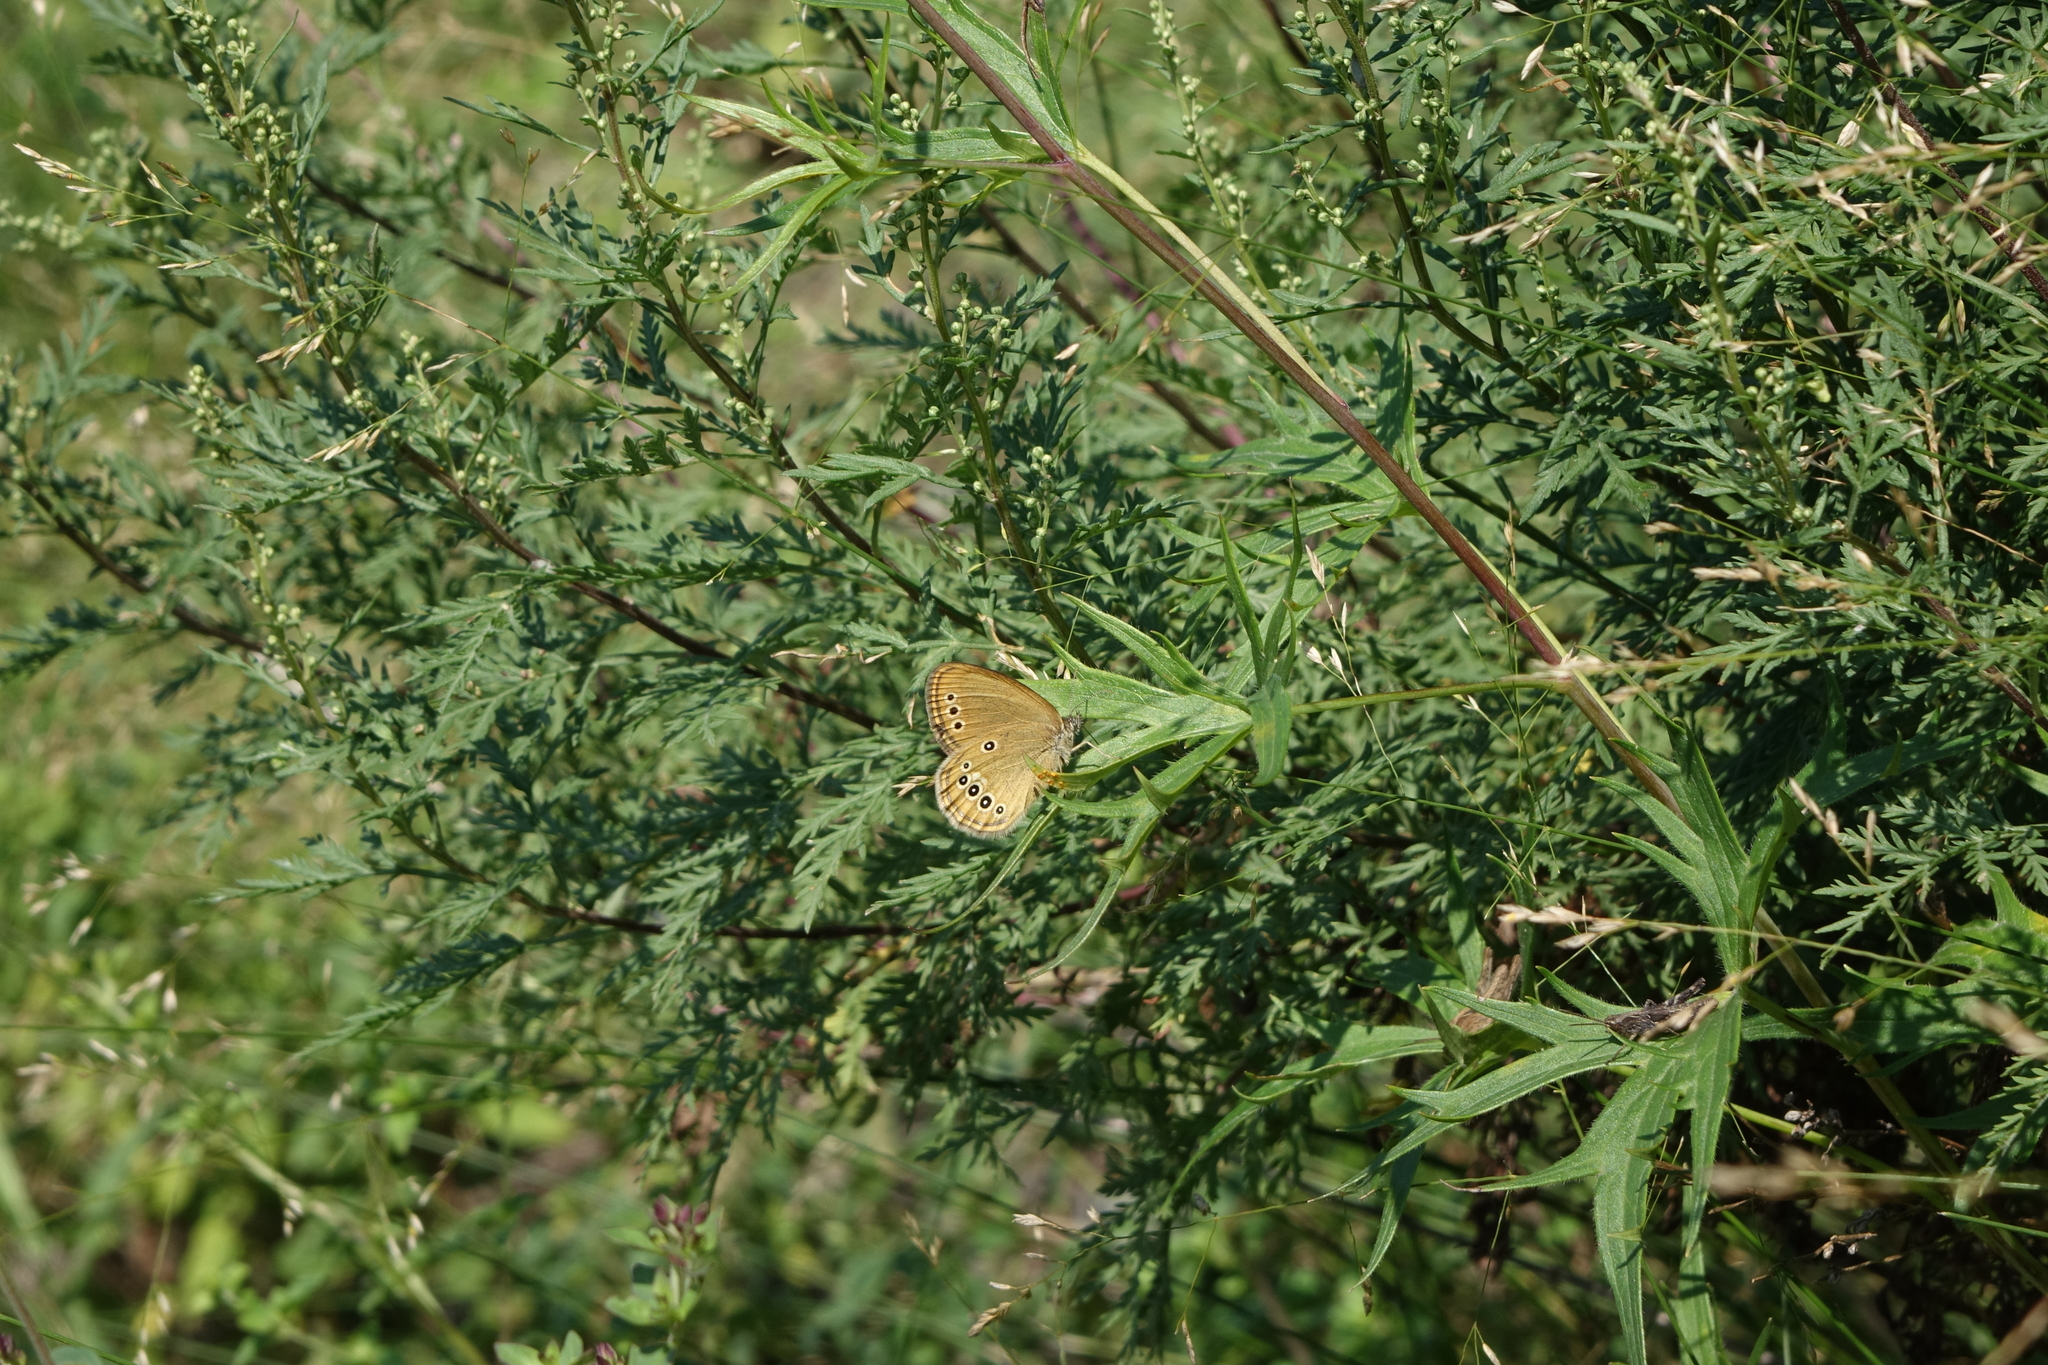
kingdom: Animalia
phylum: Arthropoda
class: Insecta
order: Lepidoptera
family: Nymphalidae
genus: Coenonympha
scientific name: Coenonympha oedippus
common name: False ringlet
